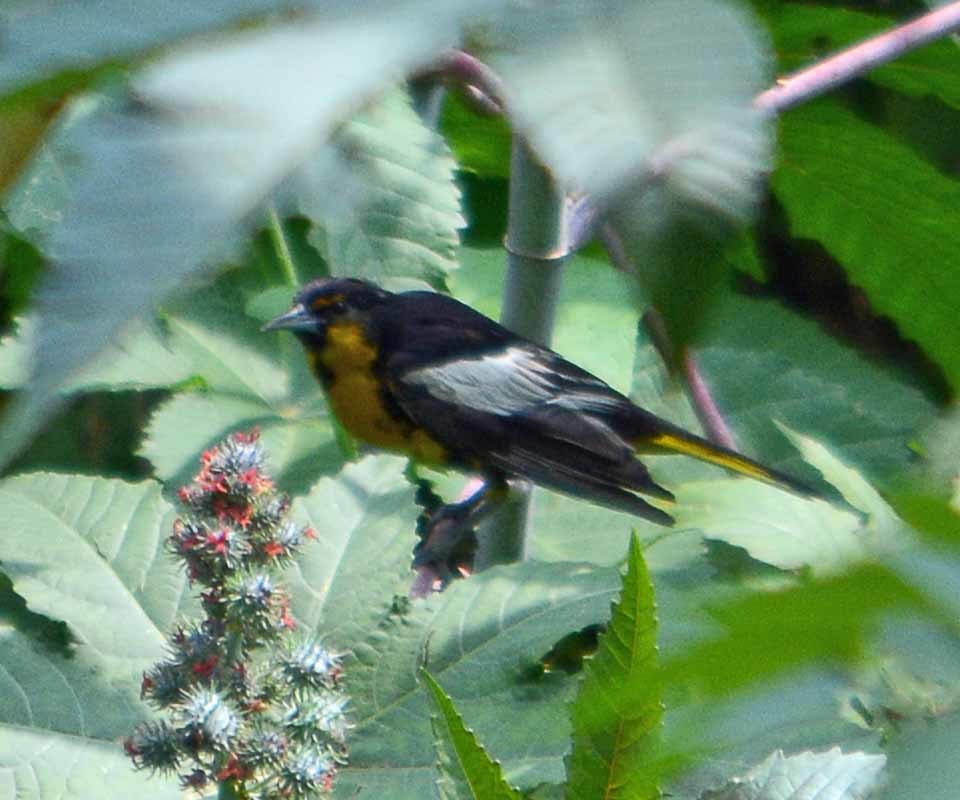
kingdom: Animalia
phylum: Chordata
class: Aves
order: Passeriformes
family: Icteridae
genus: Icterus
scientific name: Icterus abeillei
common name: Black-backed oriole
